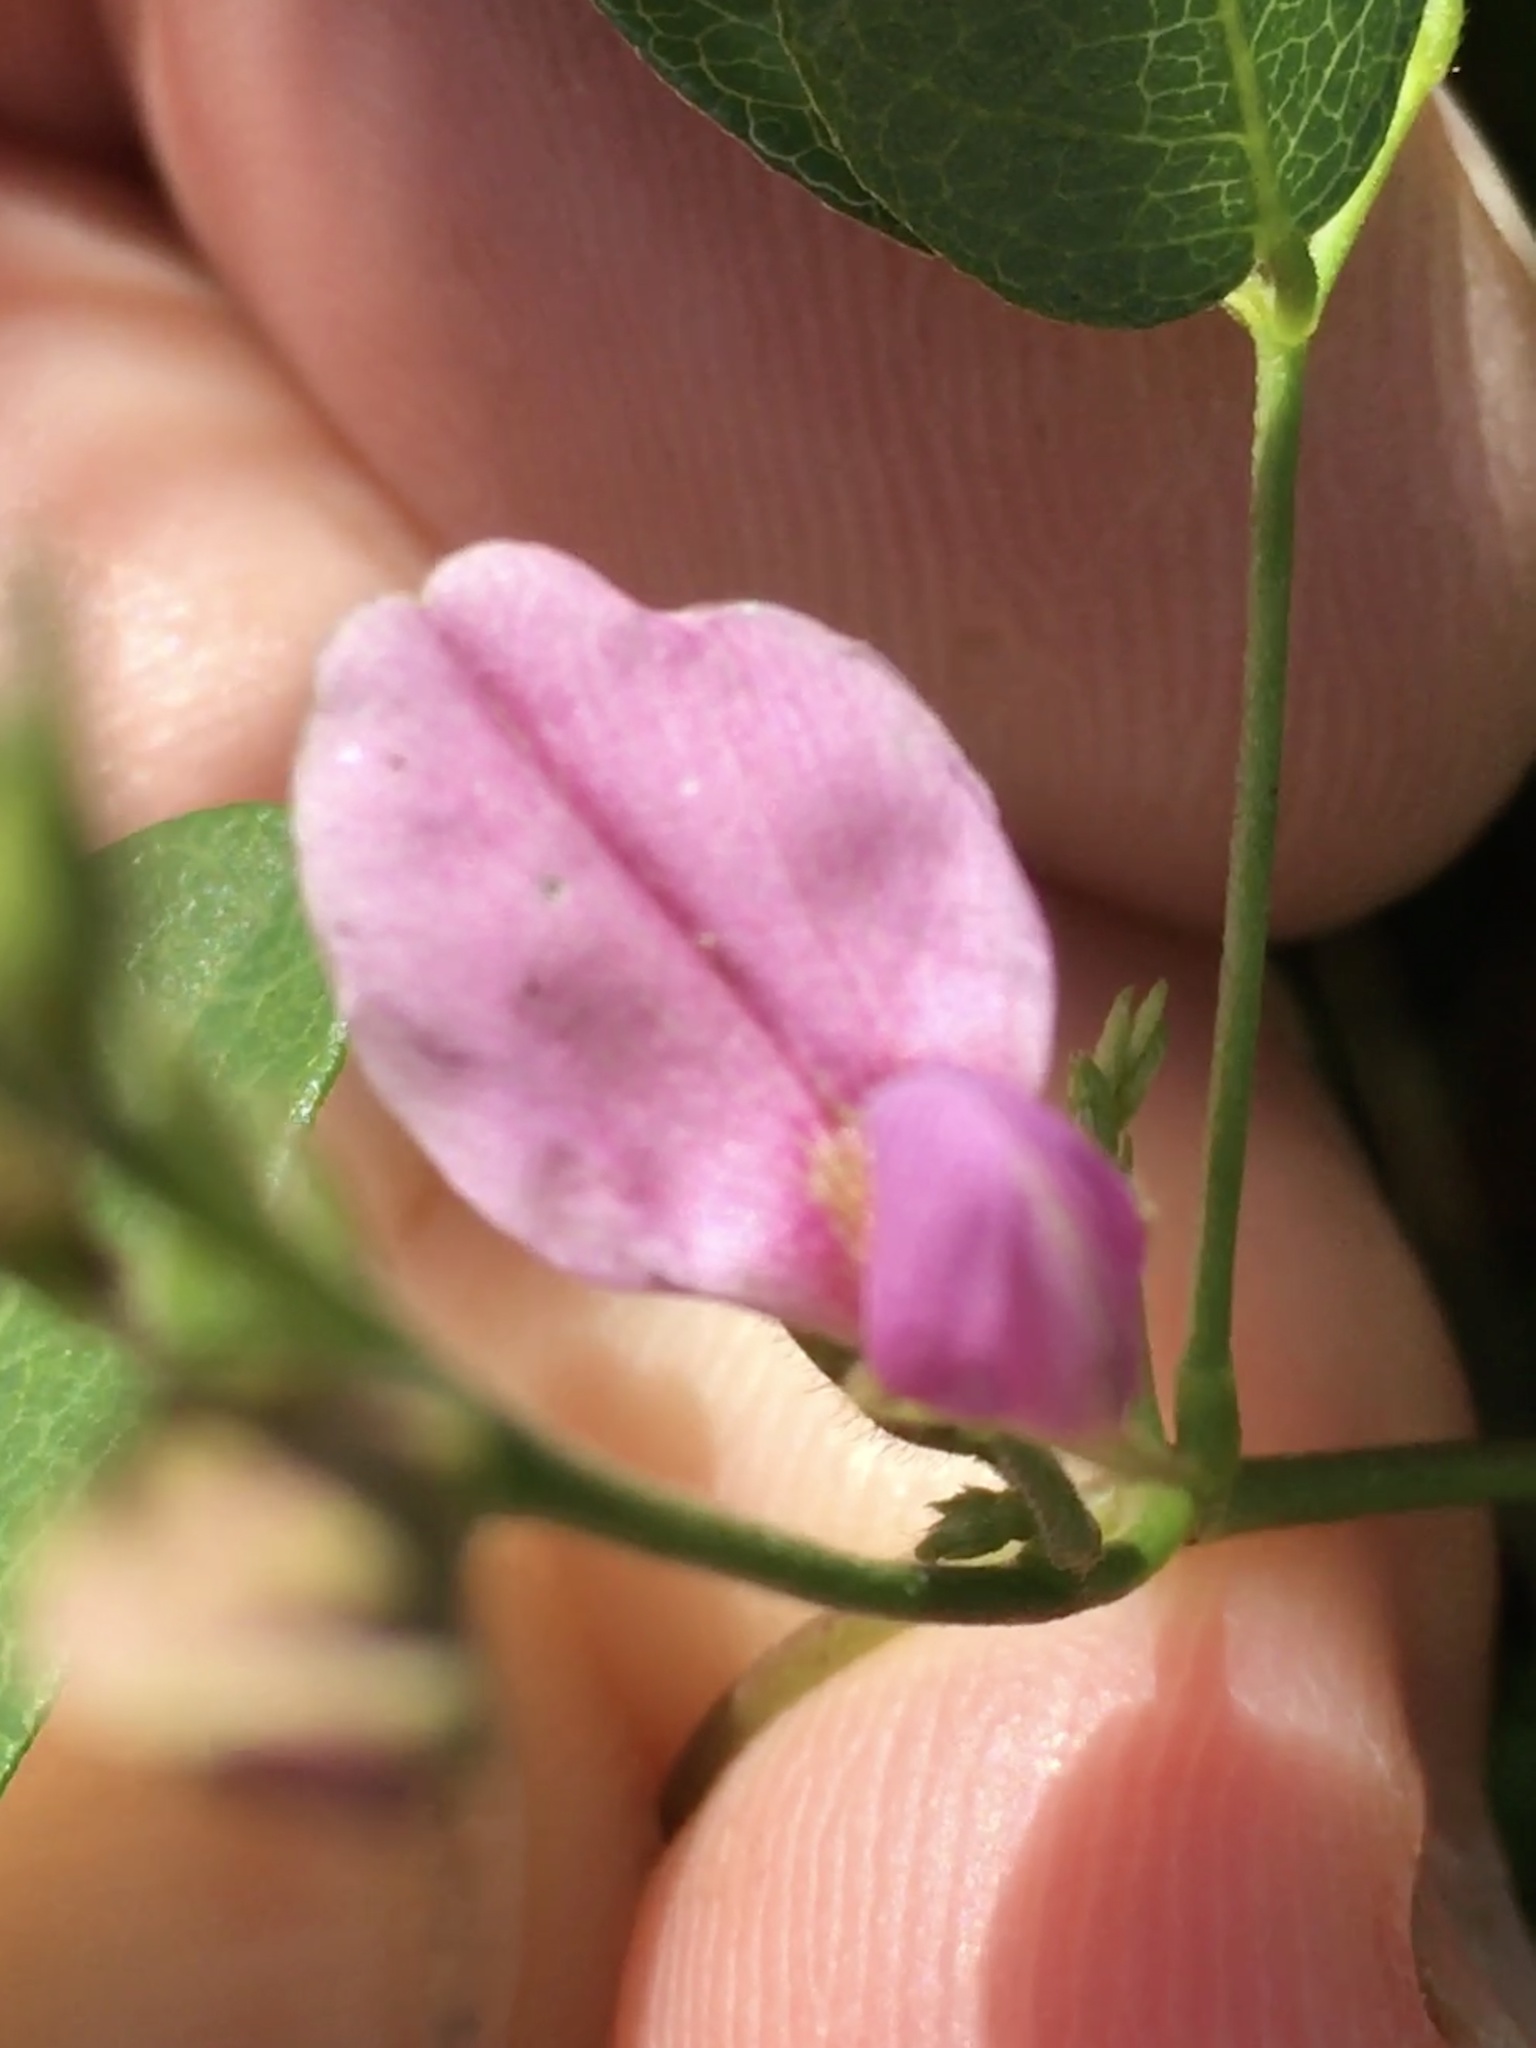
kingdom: Plantae
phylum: Tracheophyta
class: Magnoliopsida
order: Fabales
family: Fabaceae
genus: Galactia
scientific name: Galactia regularis
